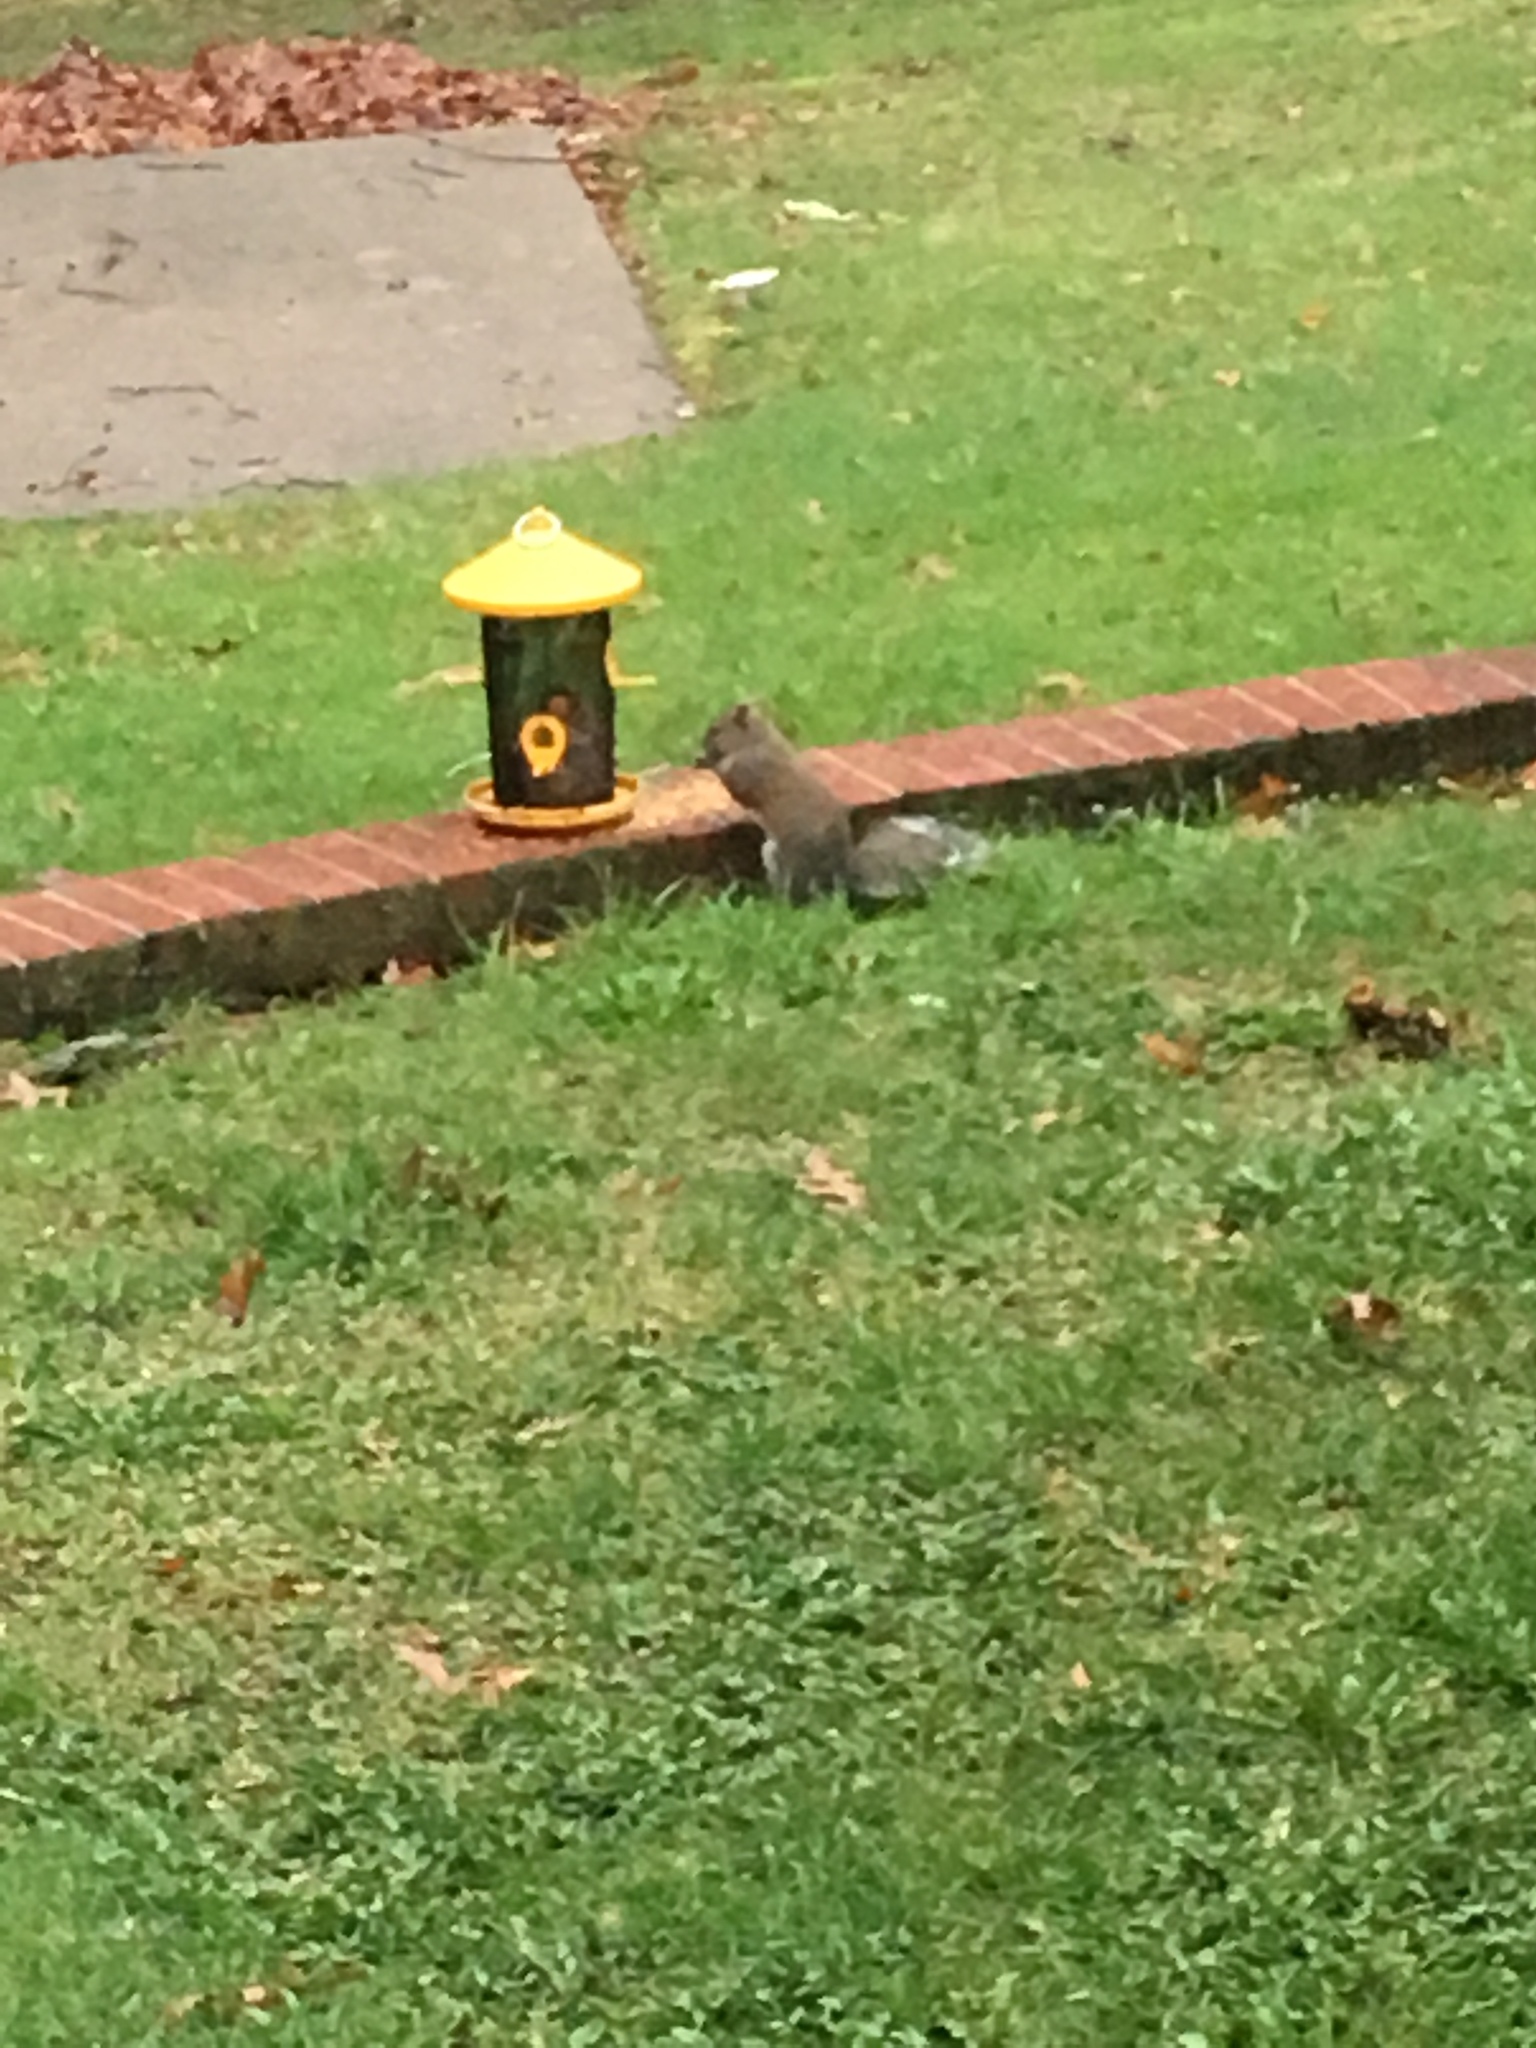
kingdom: Animalia
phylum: Chordata
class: Mammalia
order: Rodentia
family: Sciuridae
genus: Sciurus
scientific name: Sciurus carolinensis
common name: Eastern gray squirrel
